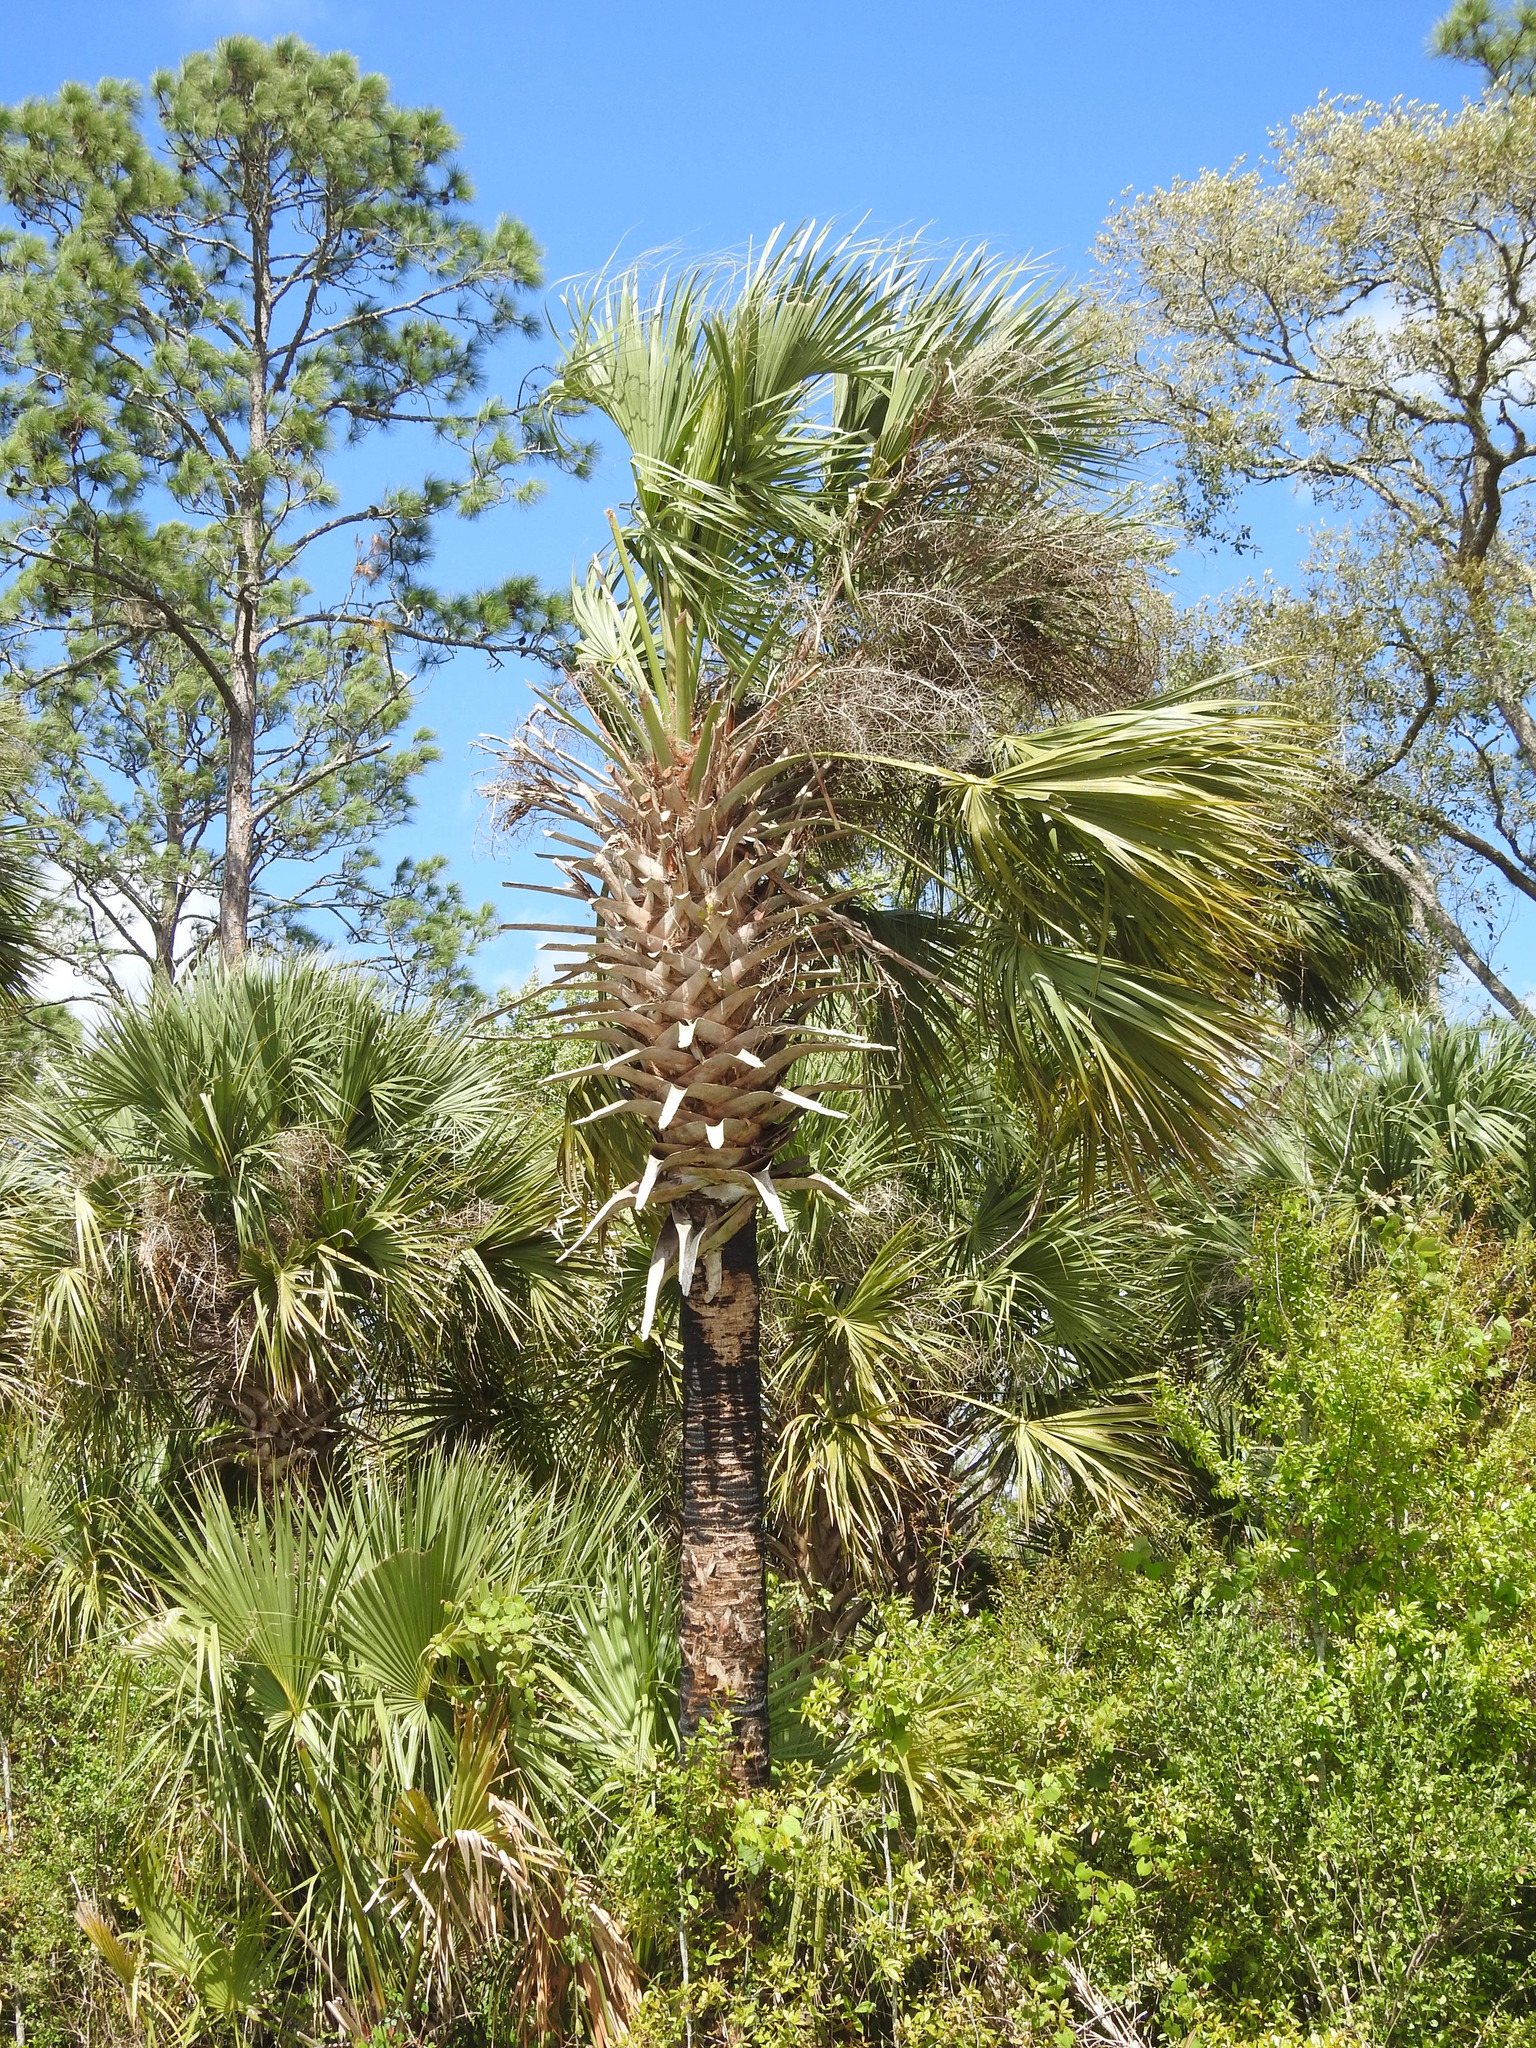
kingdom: Plantae
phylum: Tracheophyta
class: Liliopsida
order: Arecales
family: Arecaceae
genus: Sabal
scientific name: Sabal palmetto
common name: Blue palmetto
